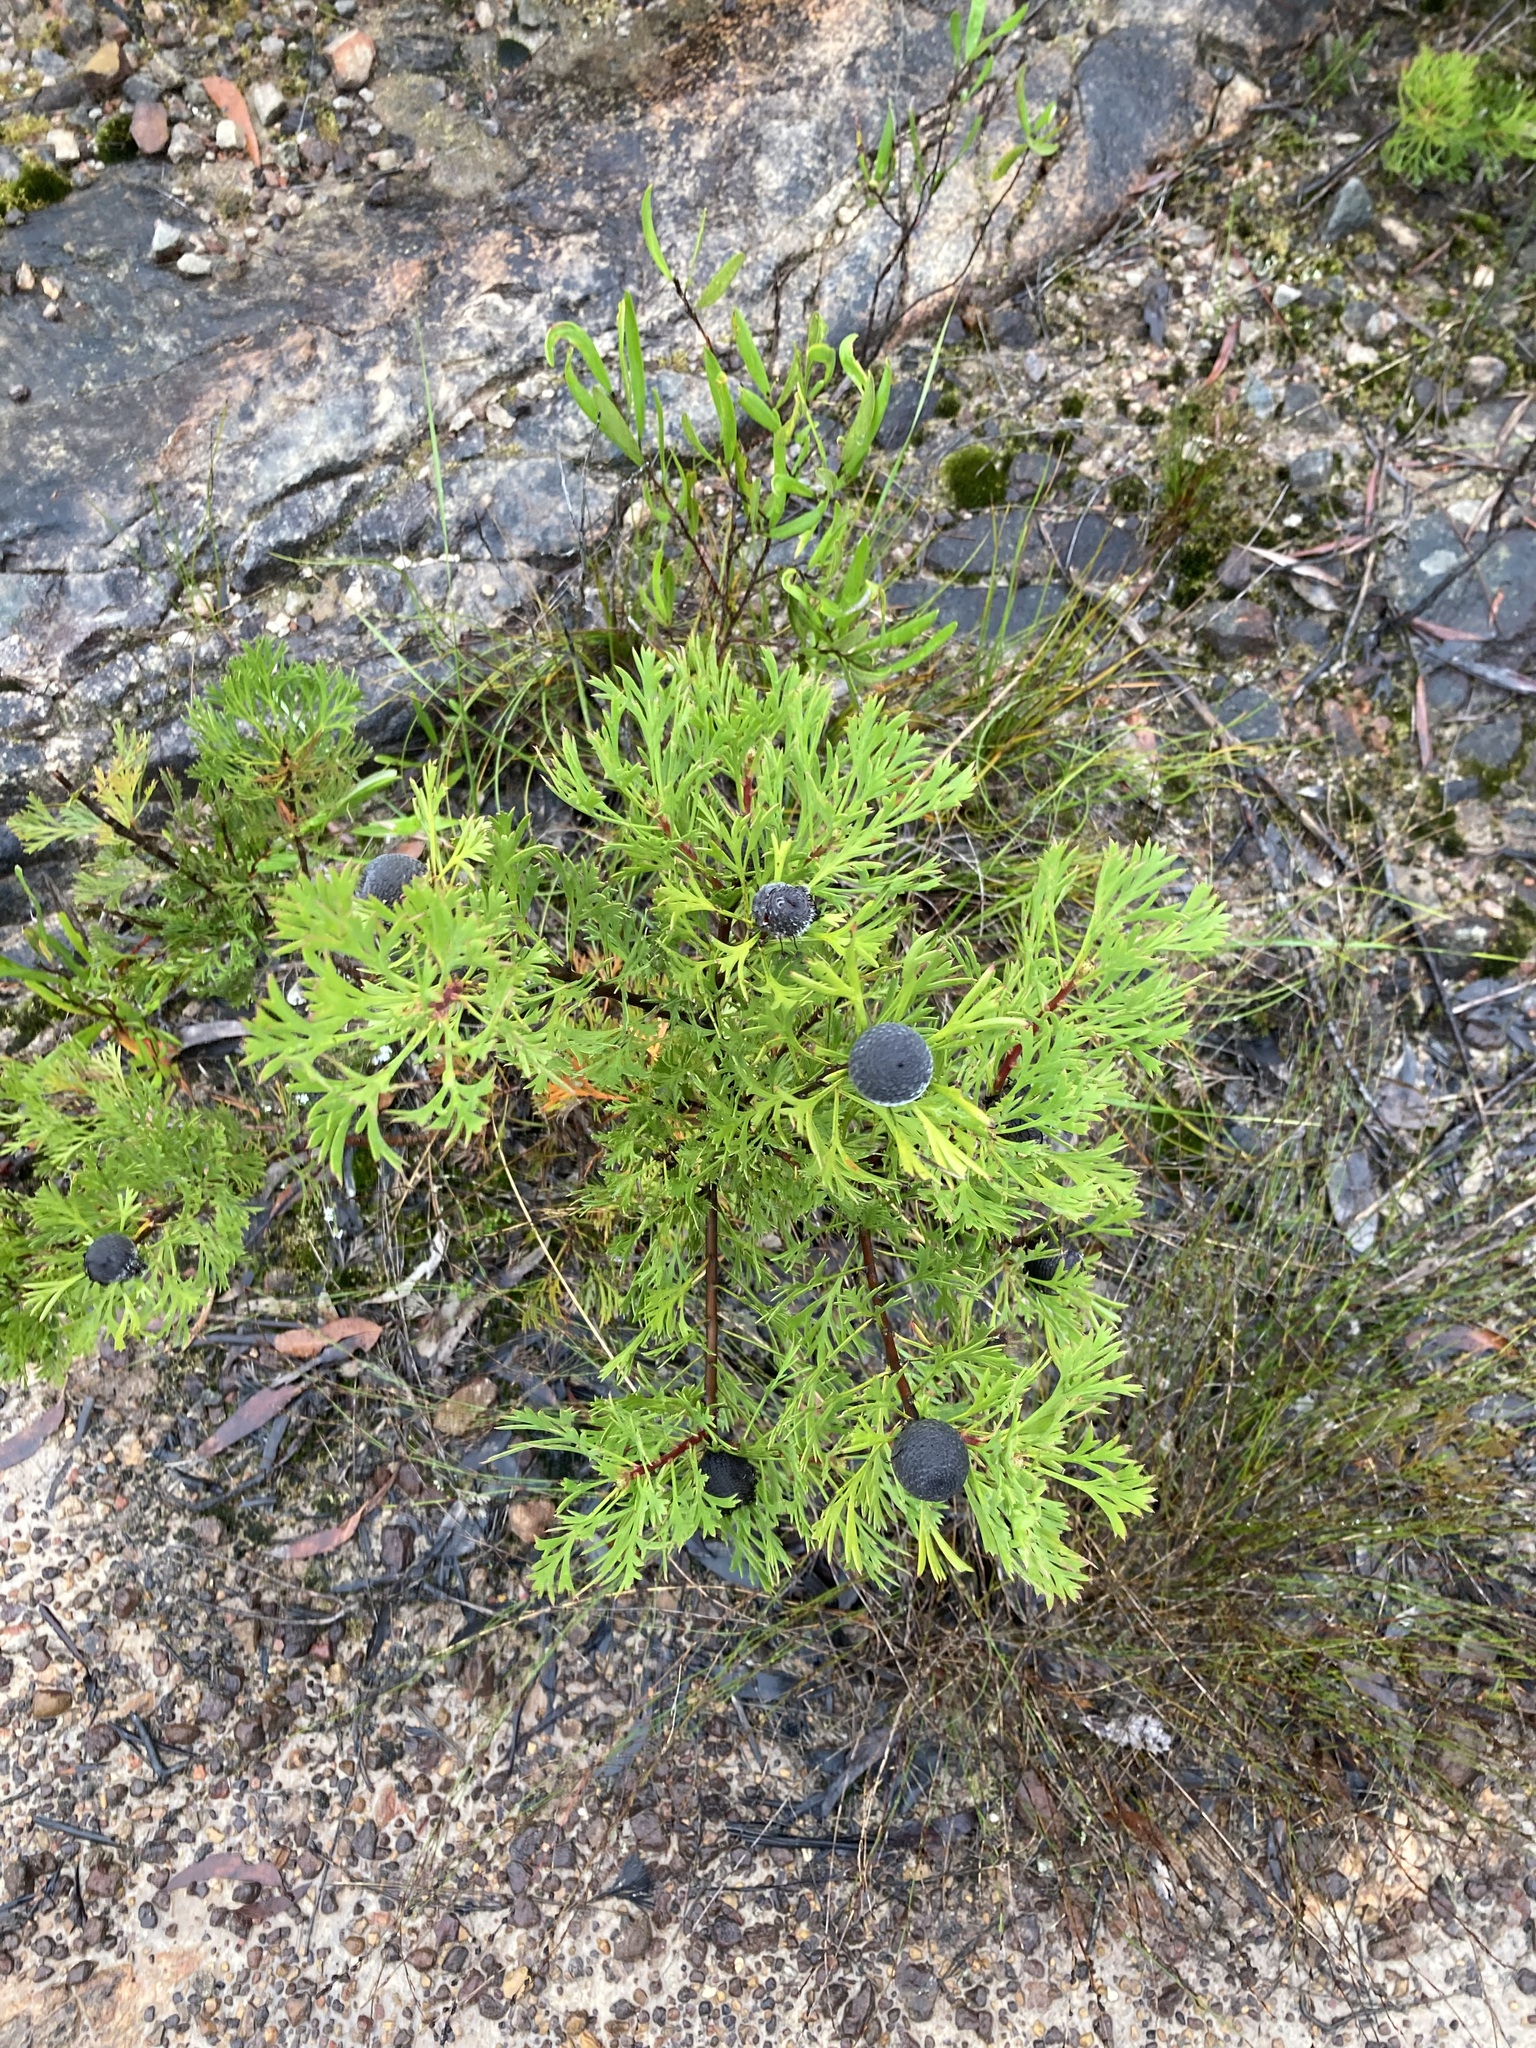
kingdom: Plantae
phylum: Tracheophyta
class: Magnoliopsida
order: Proteales
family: Proteaceae
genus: Isopogon
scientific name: Isopogon anemonifolius
